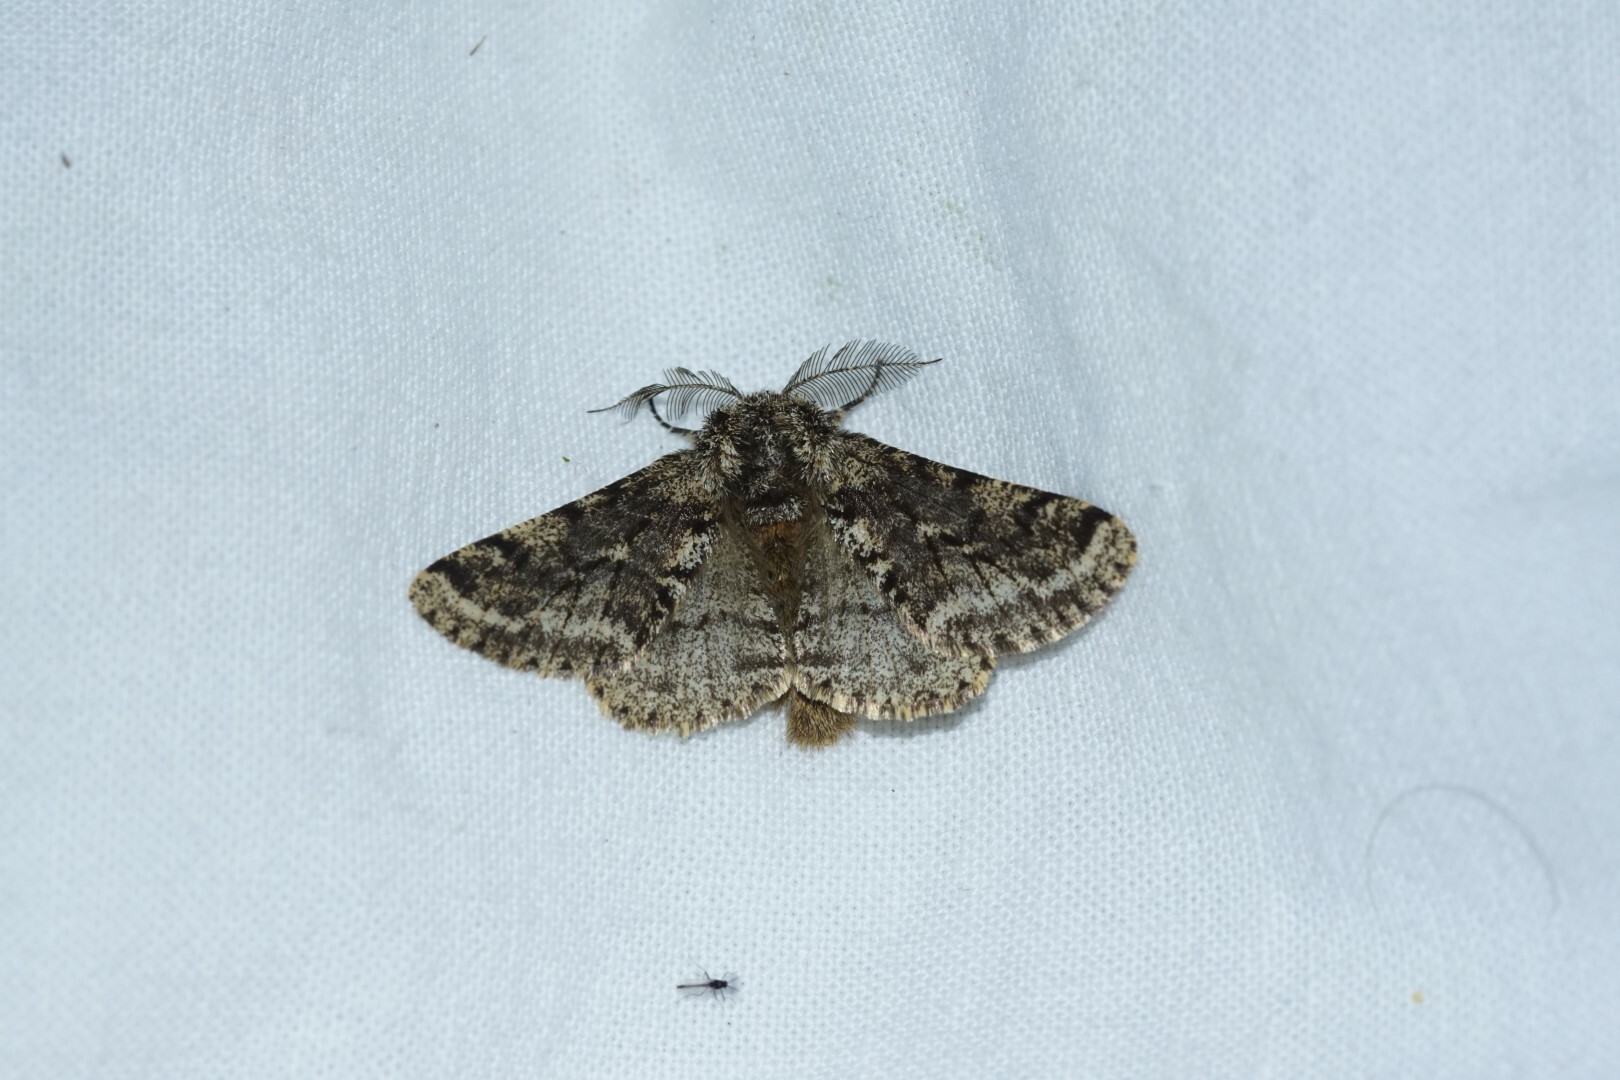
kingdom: Animalia
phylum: Arthropoda
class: Insecta
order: Lepidoptera
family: Geometridae
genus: Lycia
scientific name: Lycia hirtaria
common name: Brindled beauty
